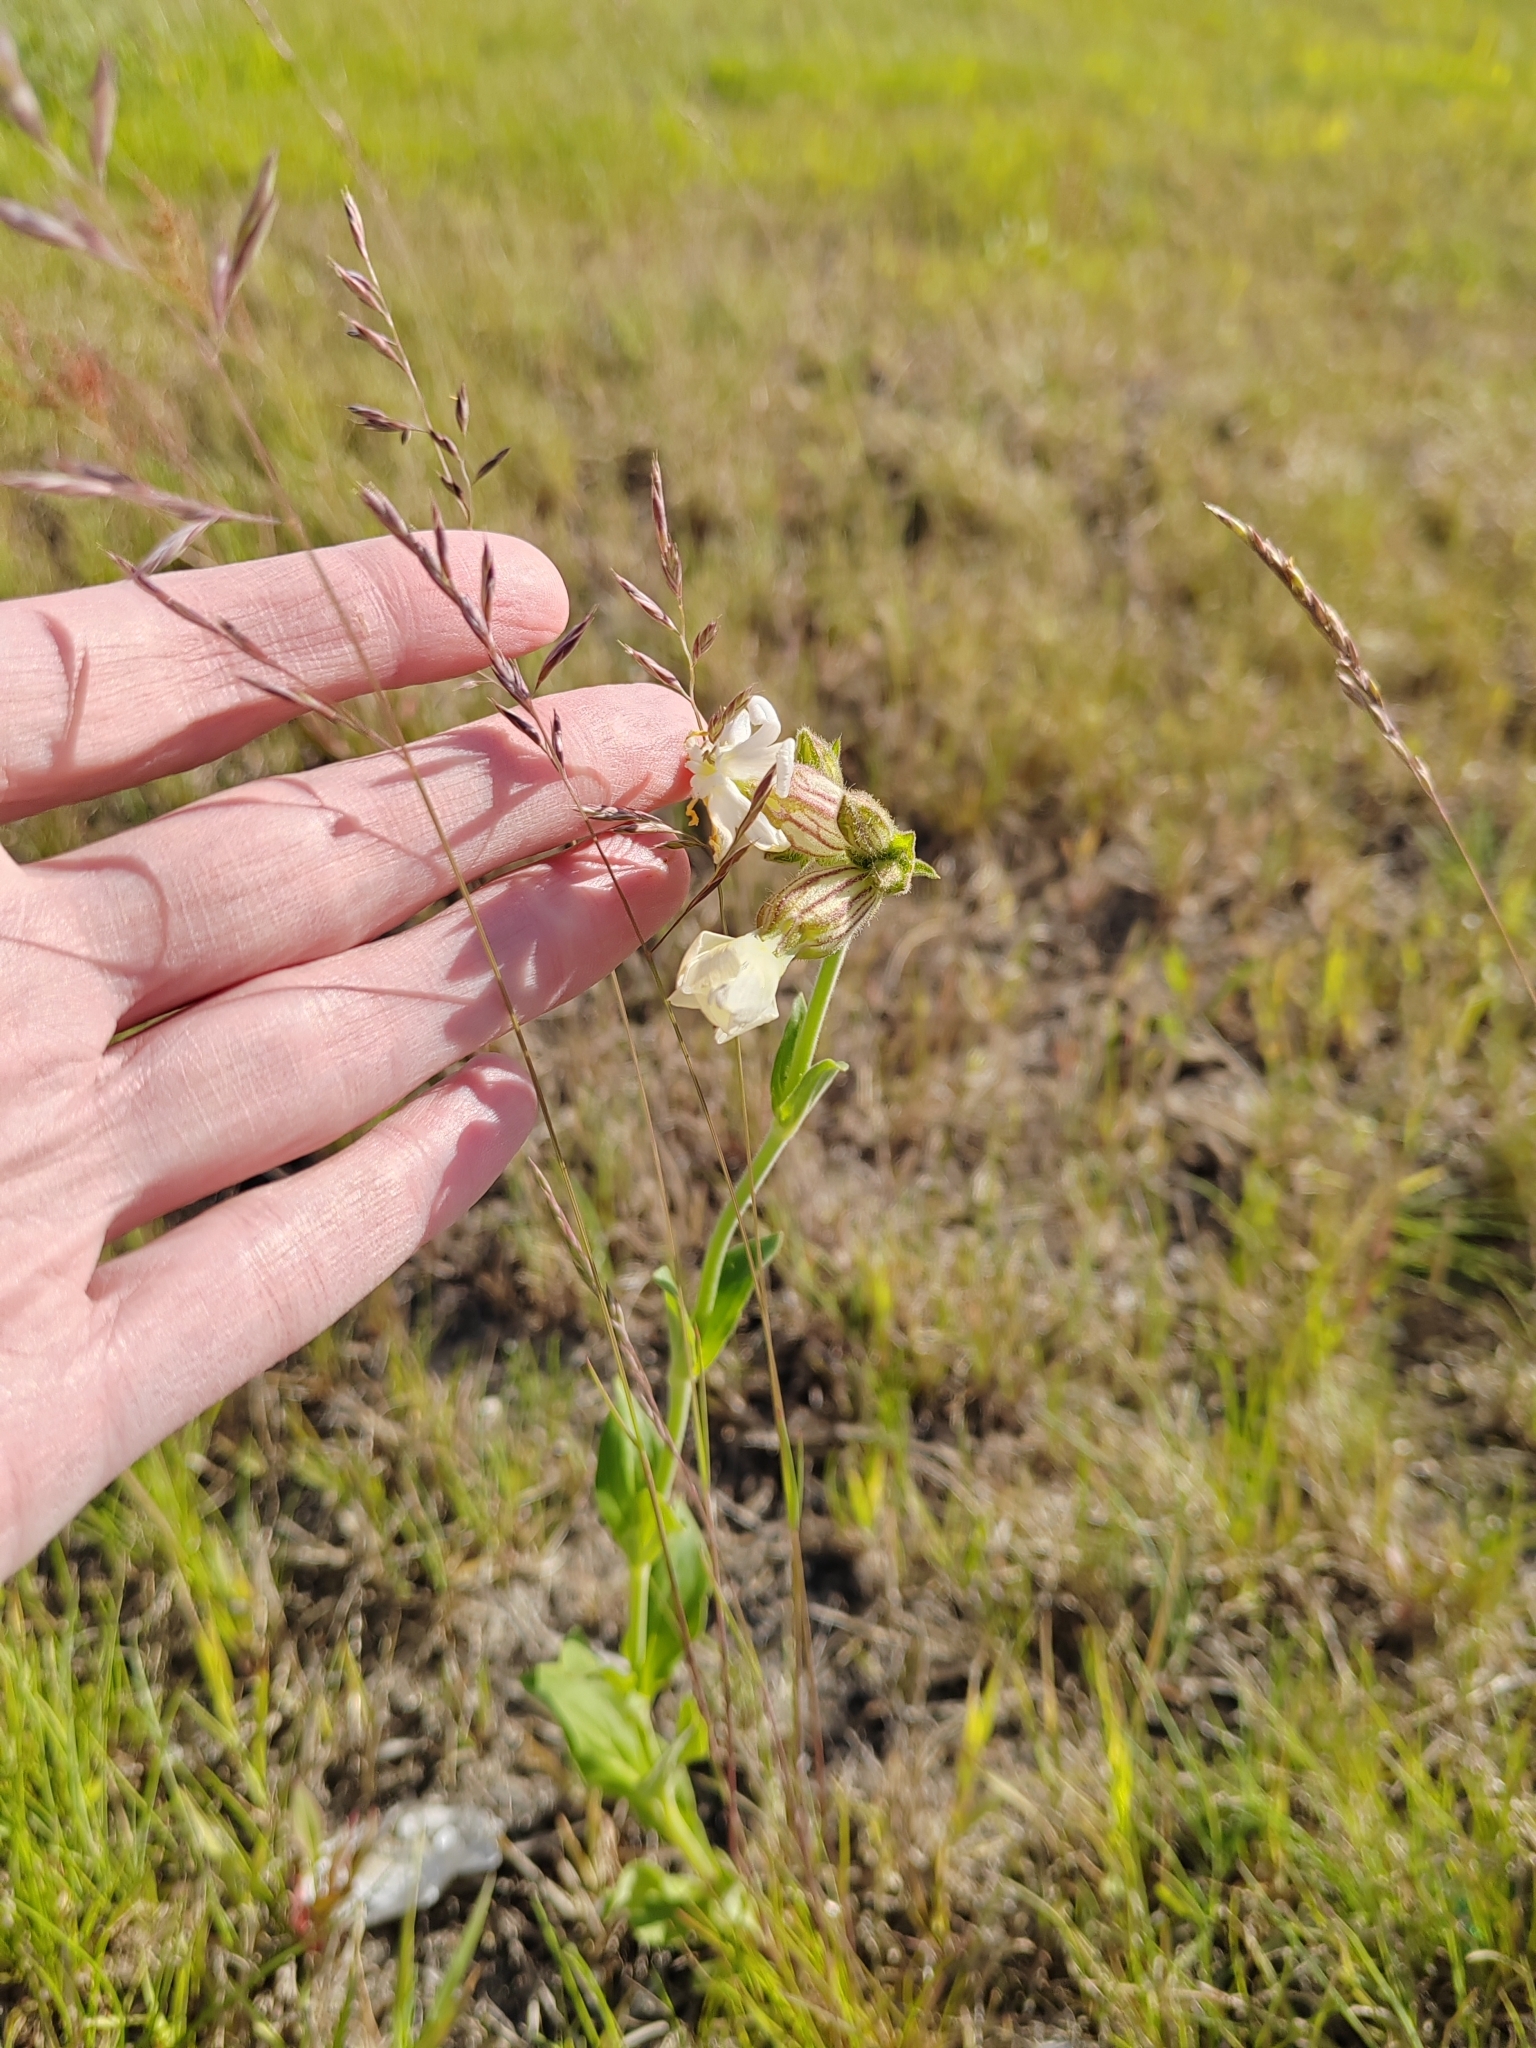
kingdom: Plantae
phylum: Tracheophyta
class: Magnoliopsida
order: Caryophyllales
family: Caryophyllaceae
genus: Silene
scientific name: Silene latifolia
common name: White campion
